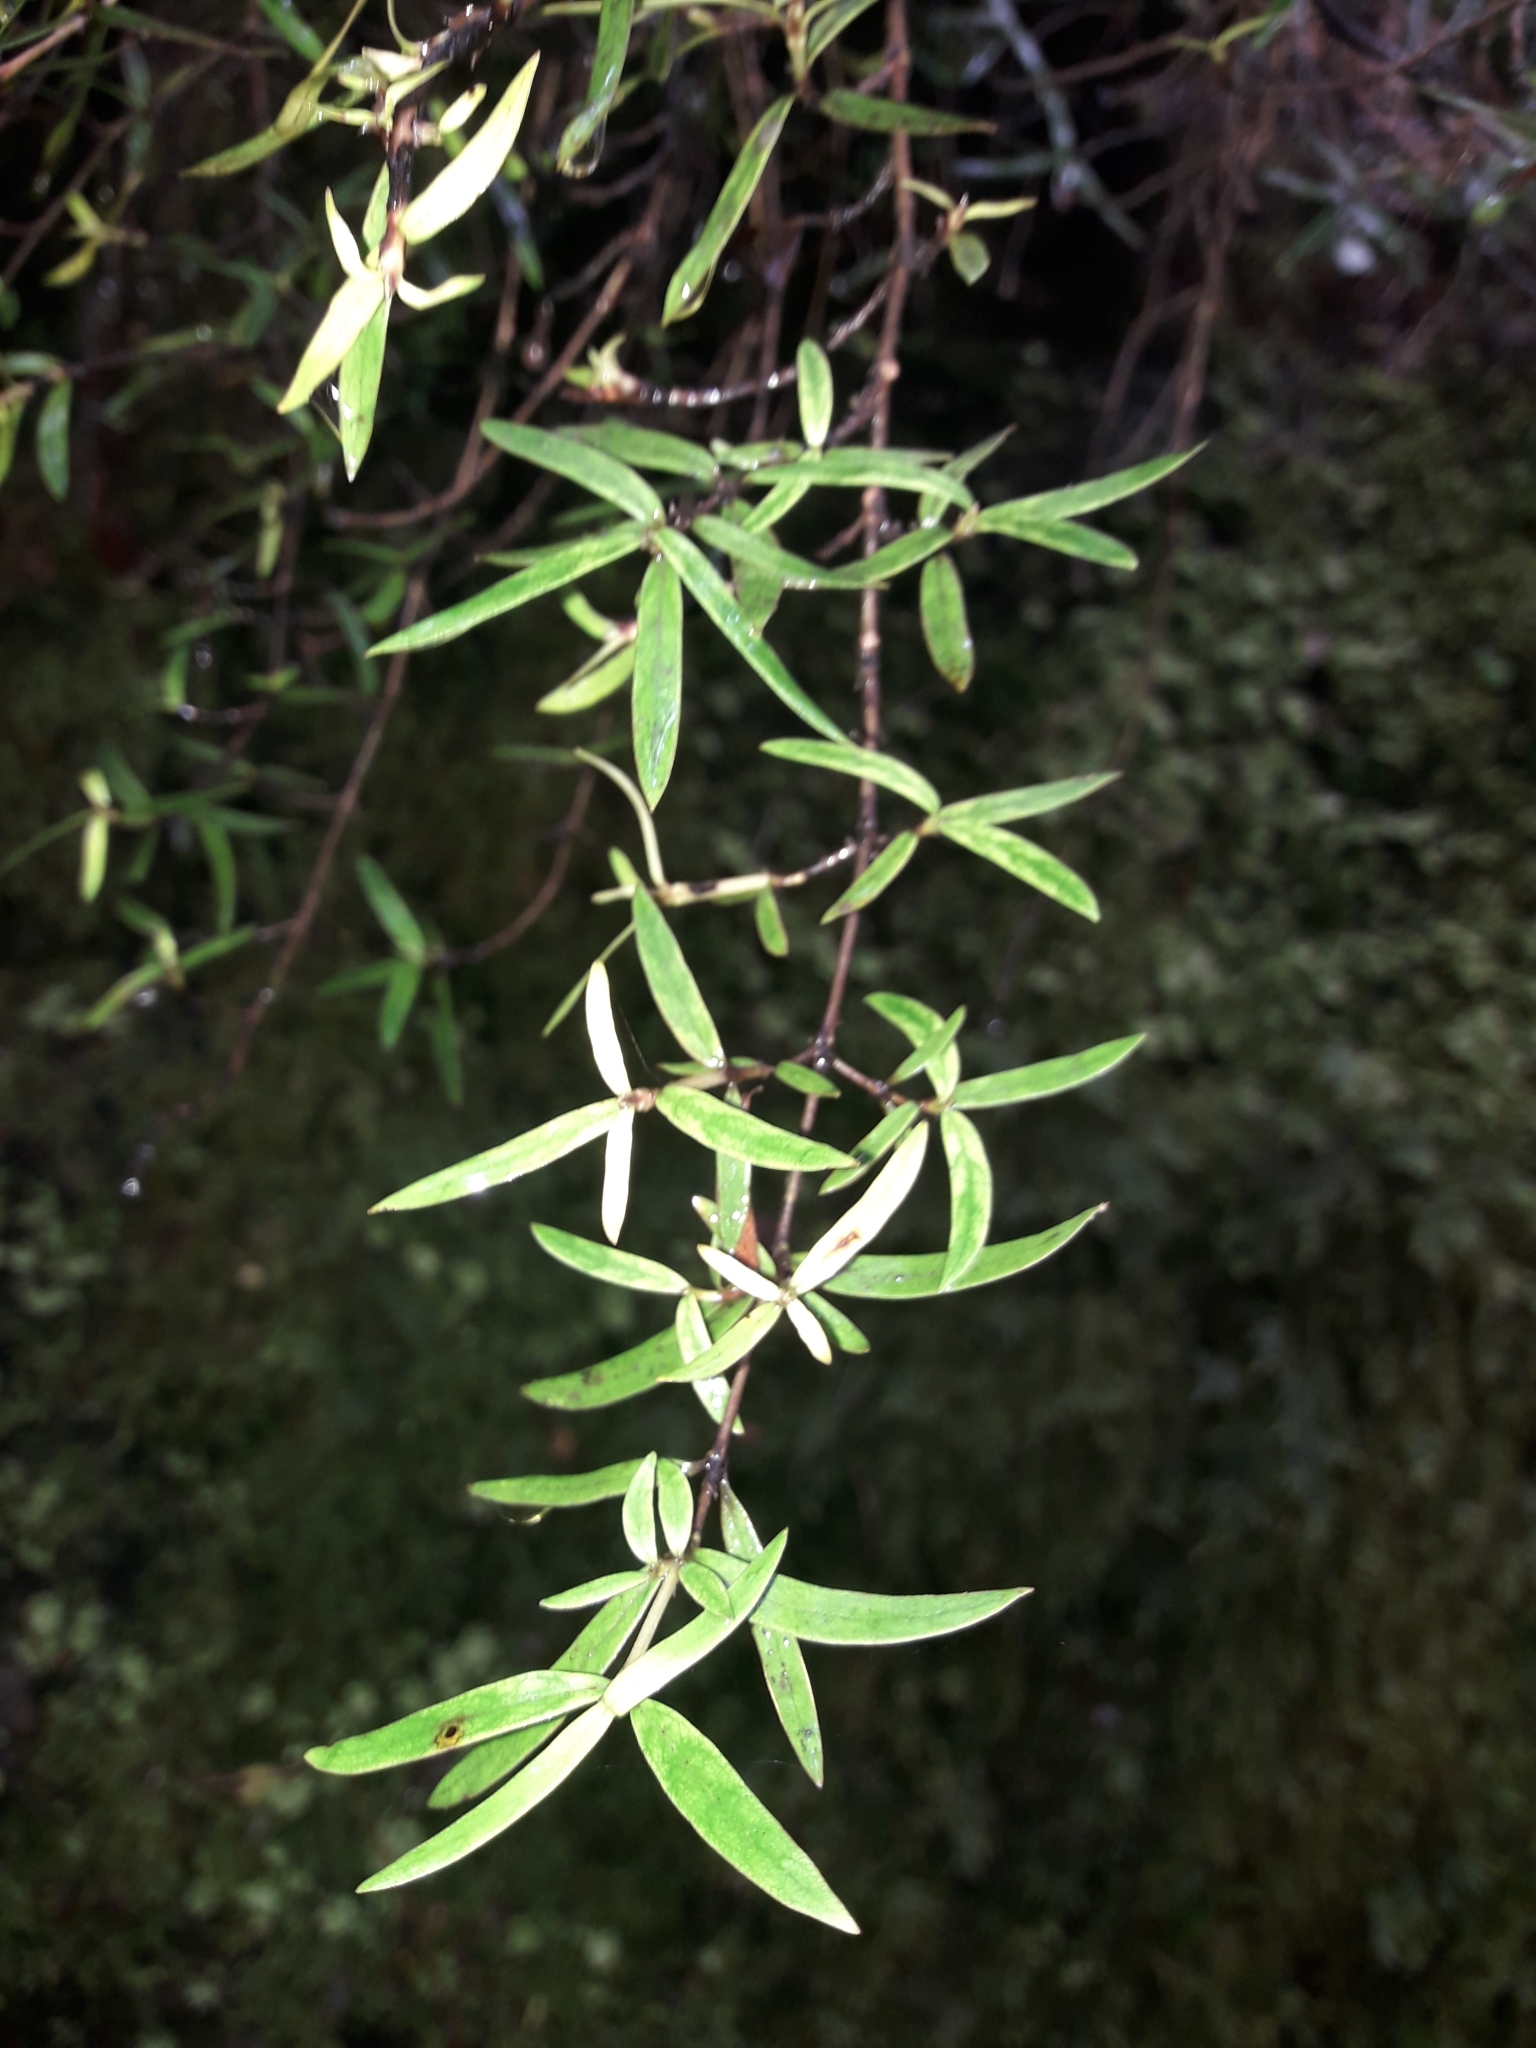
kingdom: Plantae
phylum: Tracheophyta
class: Magnoliopsida
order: Gentianales
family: Rubiaceae
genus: Coprosma
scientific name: Coprosma linariifolia
